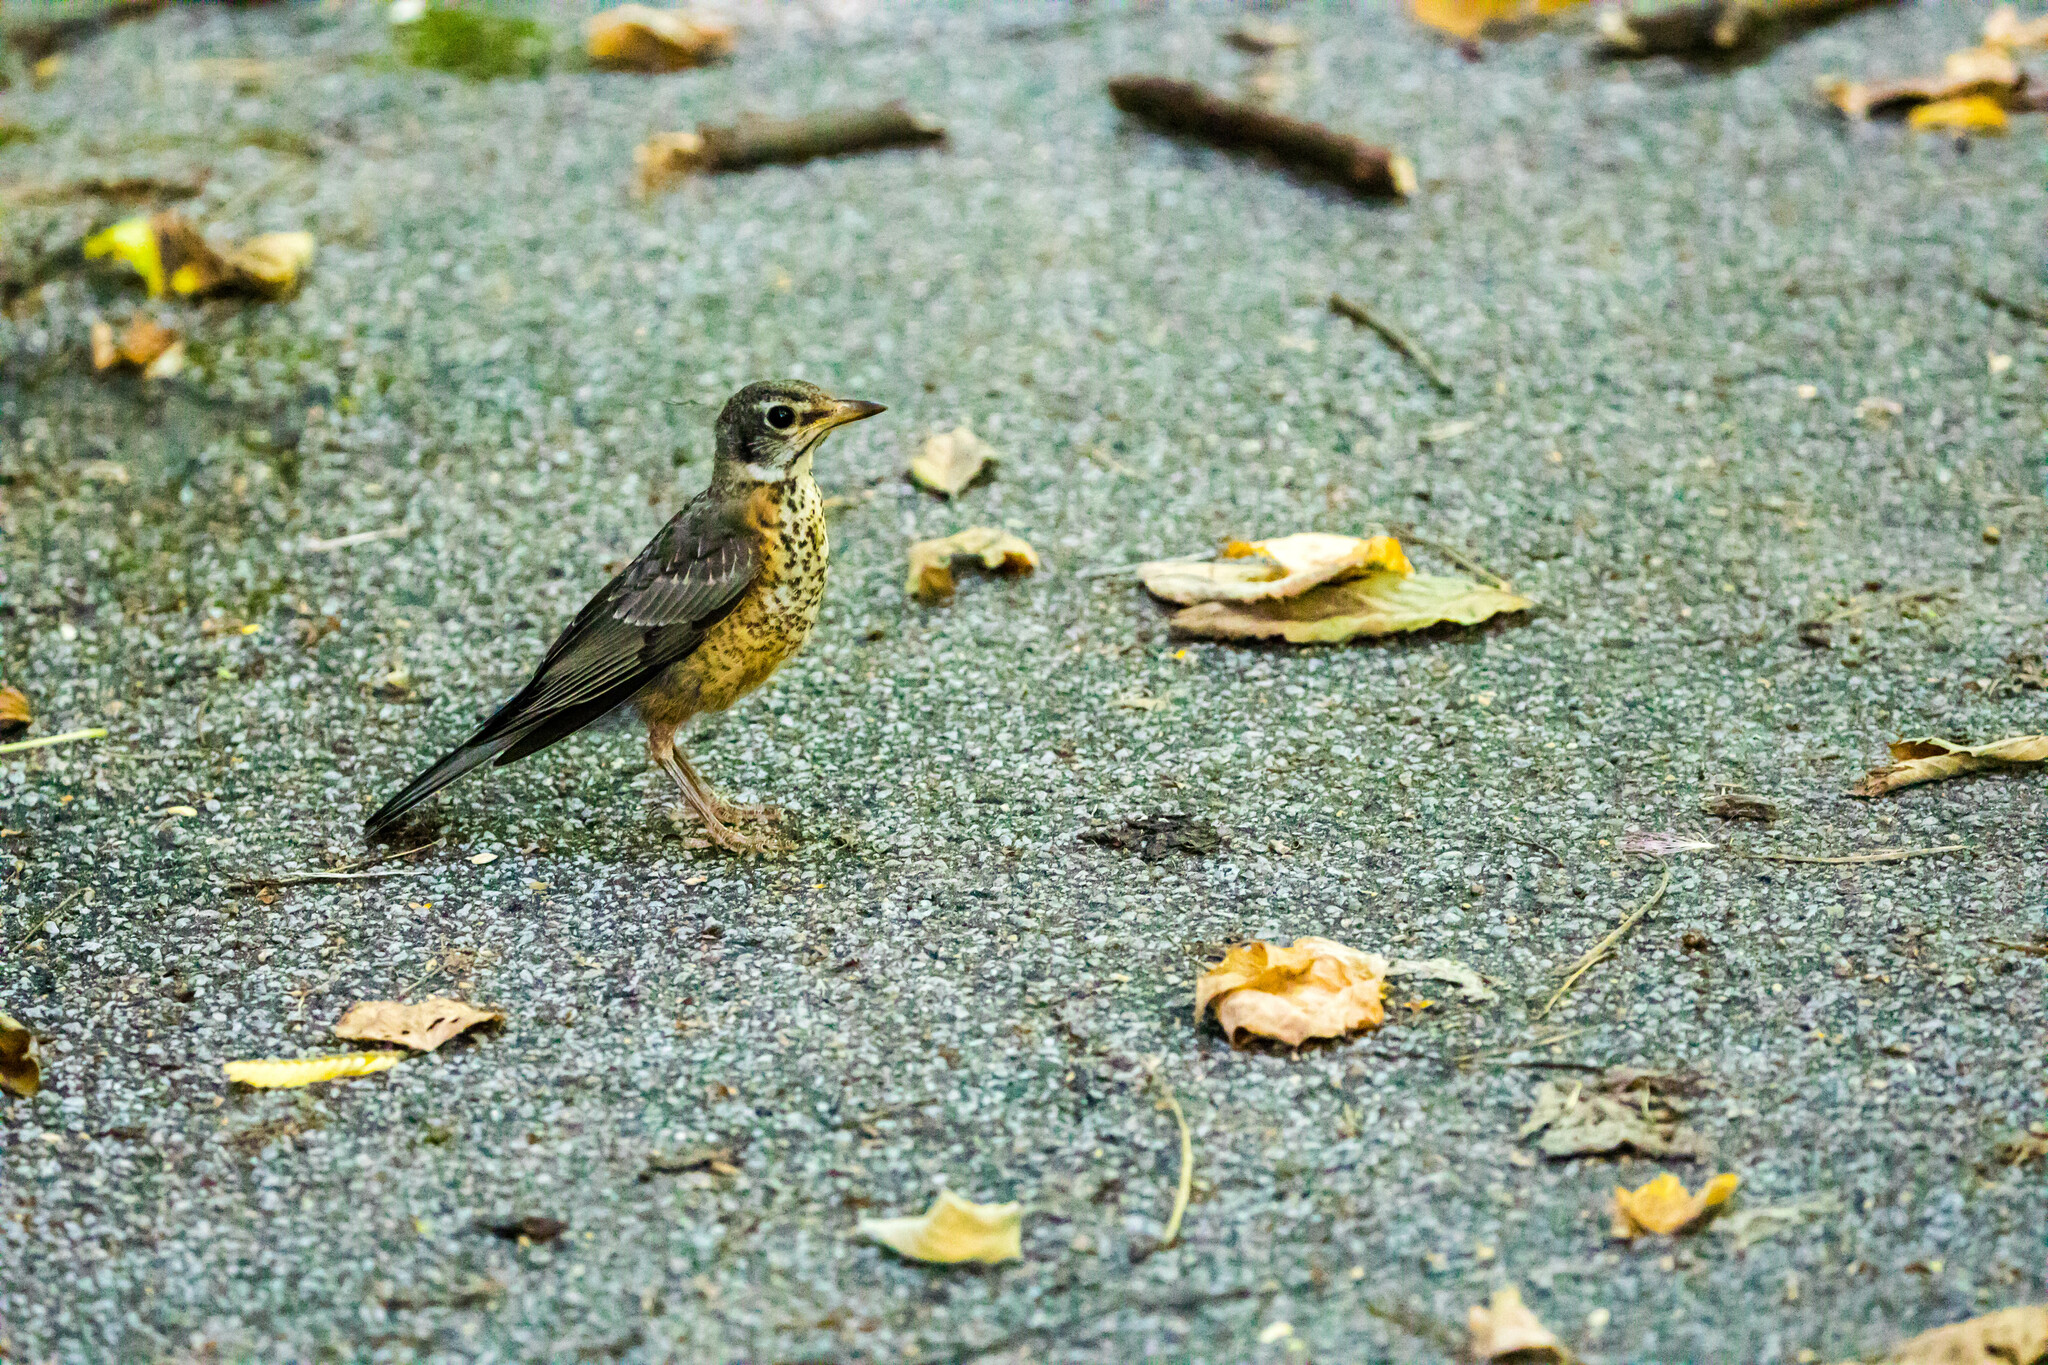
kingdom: Animalia
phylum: Chordata
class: Aves
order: Passeriformes
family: Turdidae
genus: Turdus
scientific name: Turdus migratorius
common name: American robin
